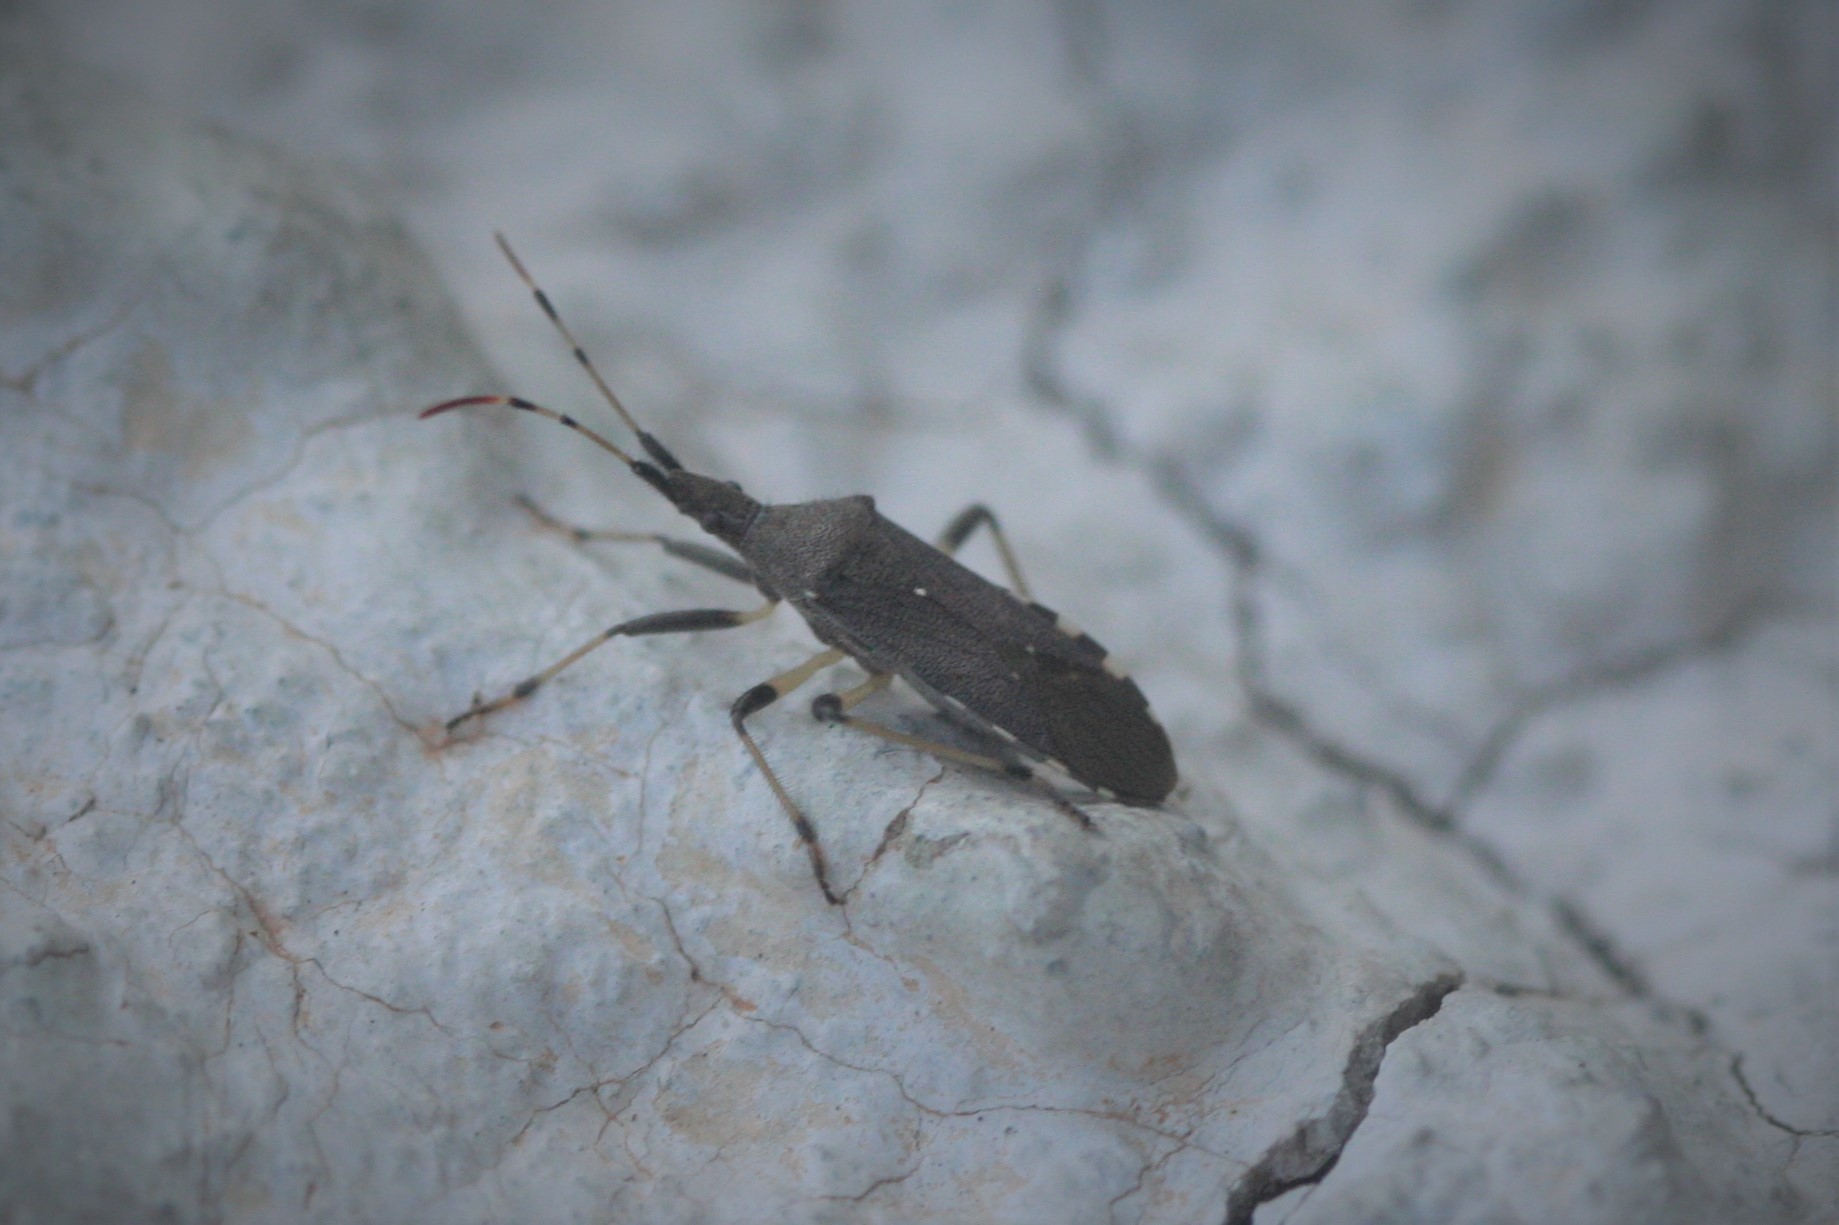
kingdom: Animalia
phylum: Arthropoda
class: Insecta
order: Hemiptera
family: Stenocephalidae
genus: Dicranocephalus
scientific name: Dicranocephalus albipes
